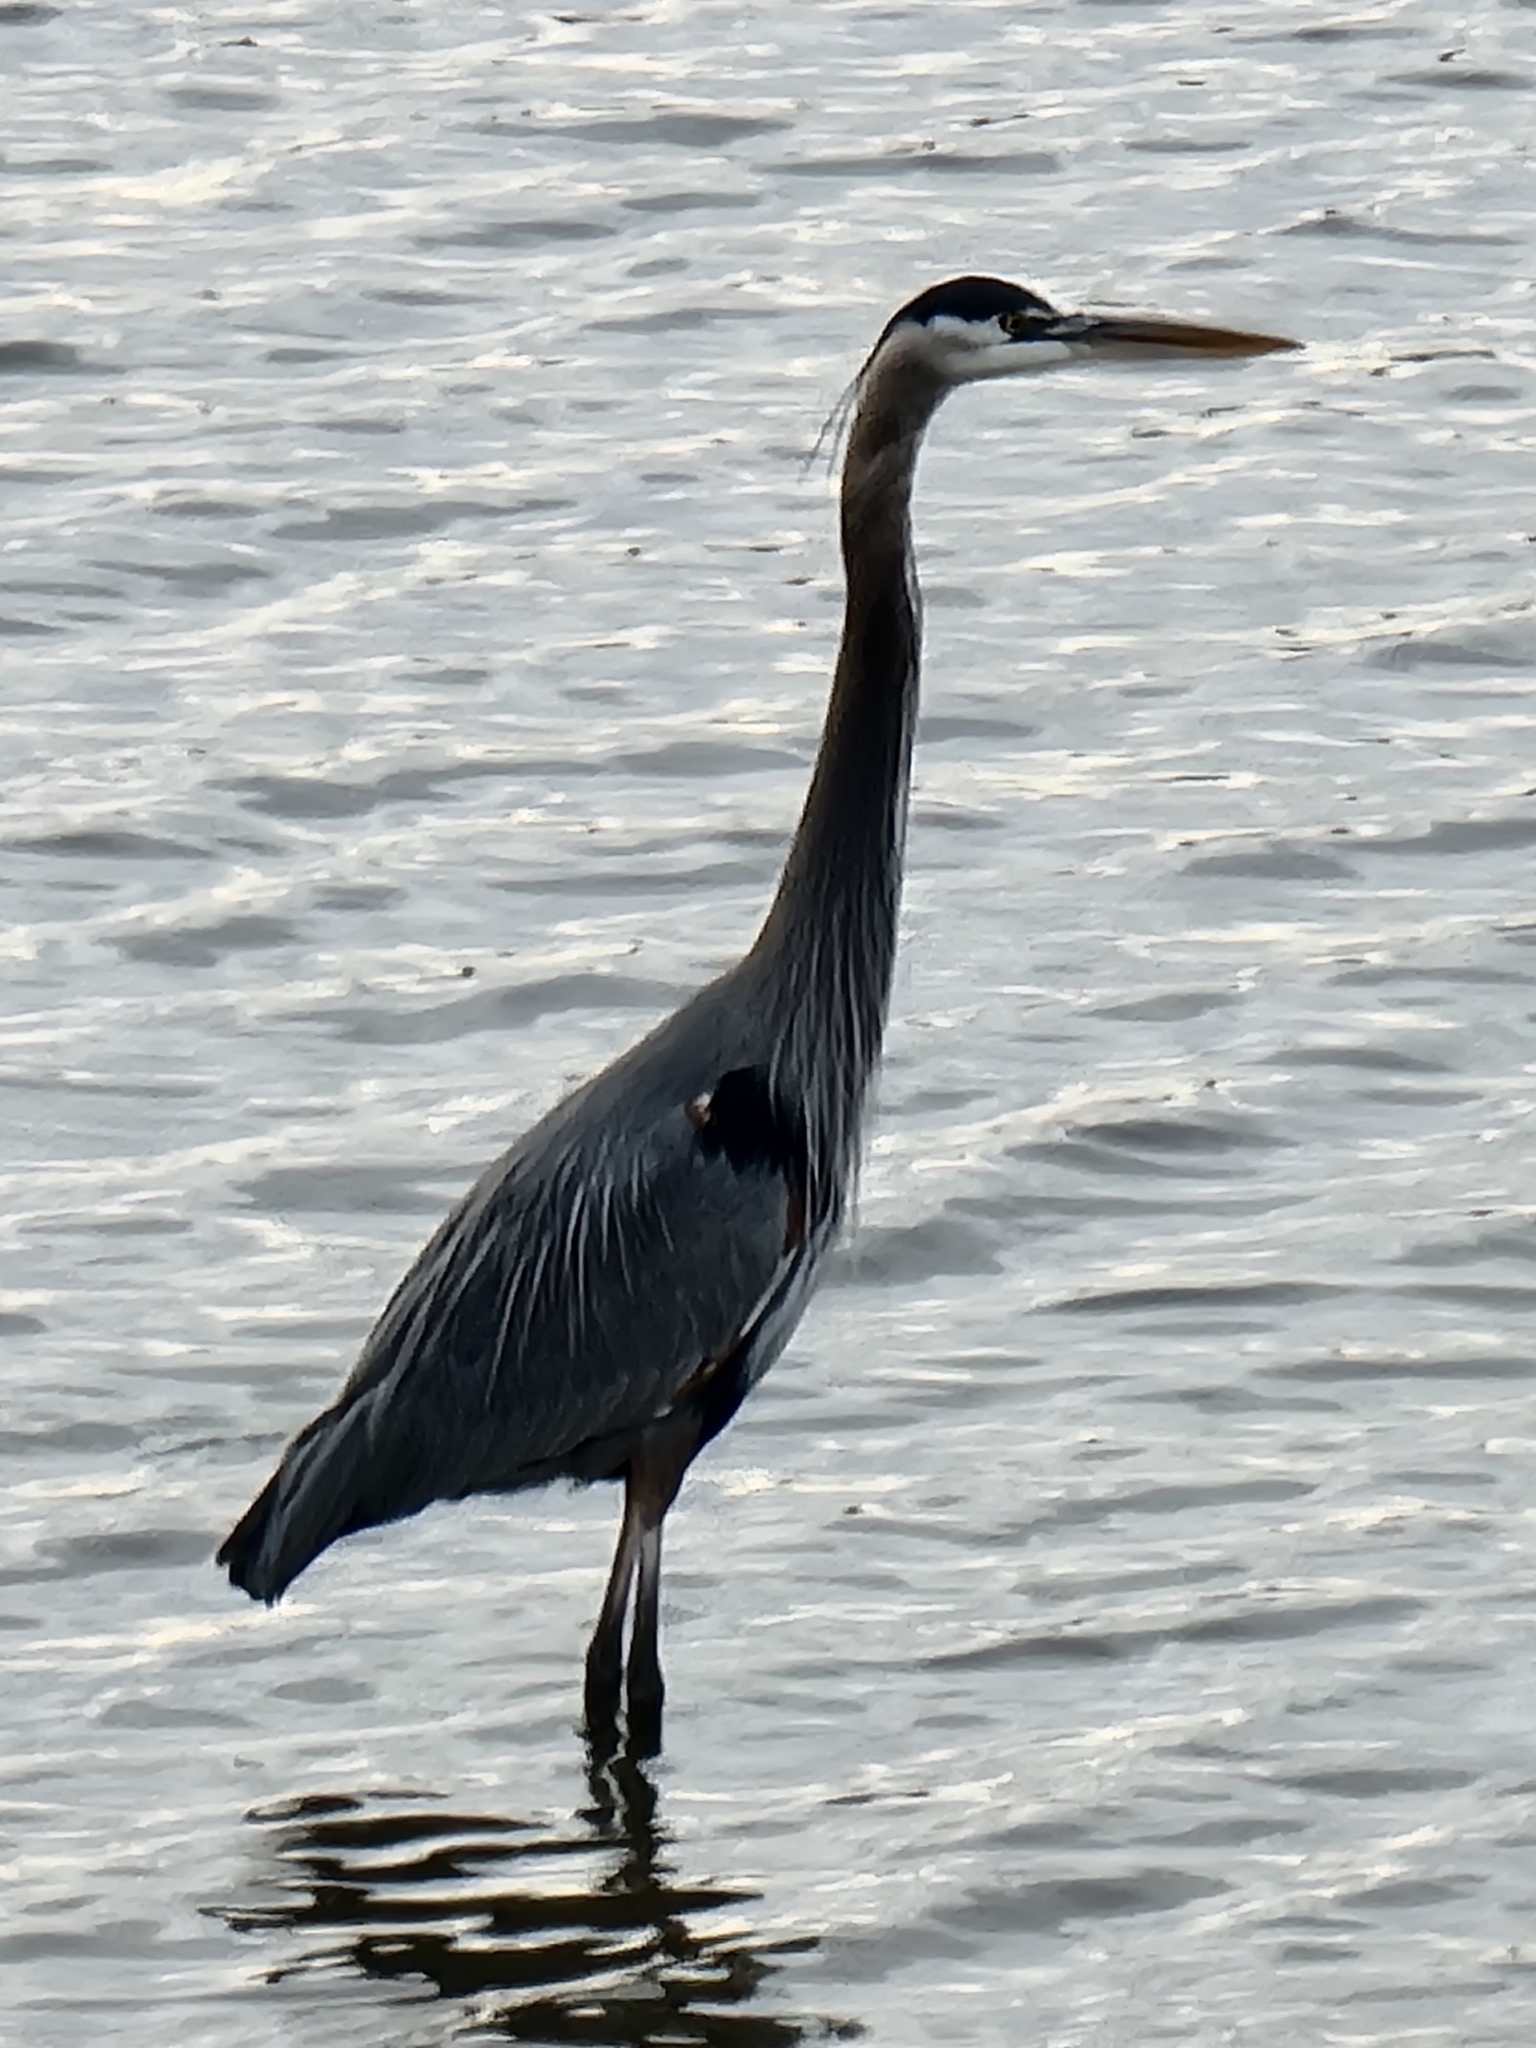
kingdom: Animalia
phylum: Chordata
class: Aves
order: Pelecaniformes
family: Ardeidae
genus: Ardea
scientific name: Ardea herodias
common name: Great blue heron
